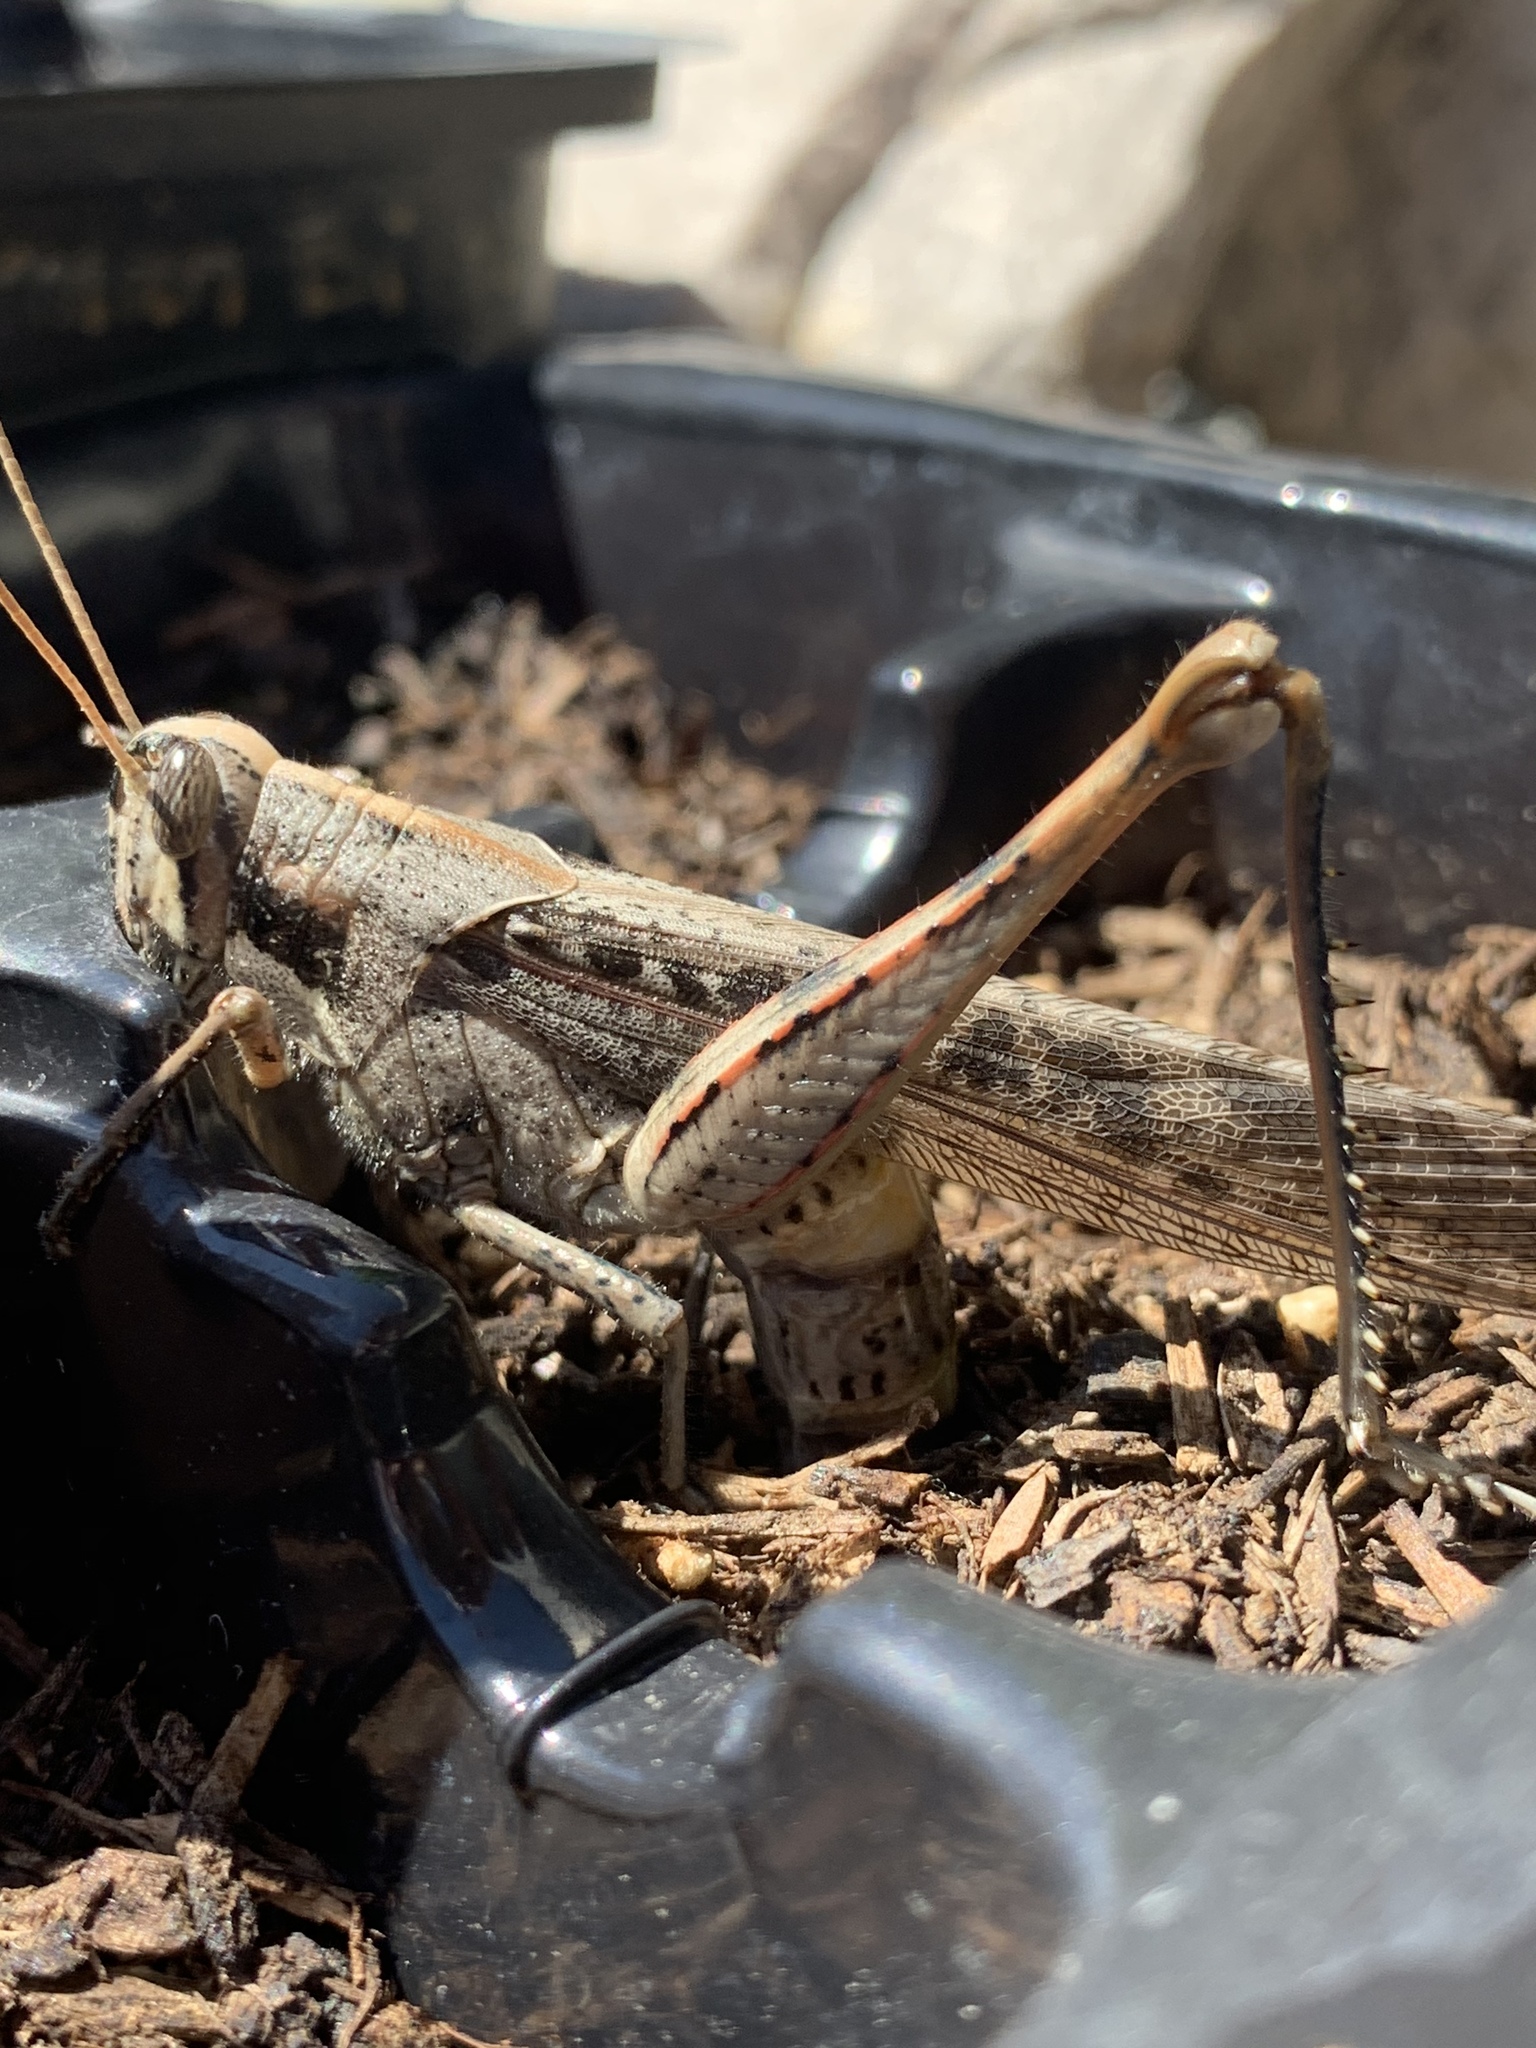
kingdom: Animalia
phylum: Arthropoda
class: Insecta
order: Orthoptera
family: Acrididae
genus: Schistocerca
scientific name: Schistocerca nitens
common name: Vagrant grasshopper
